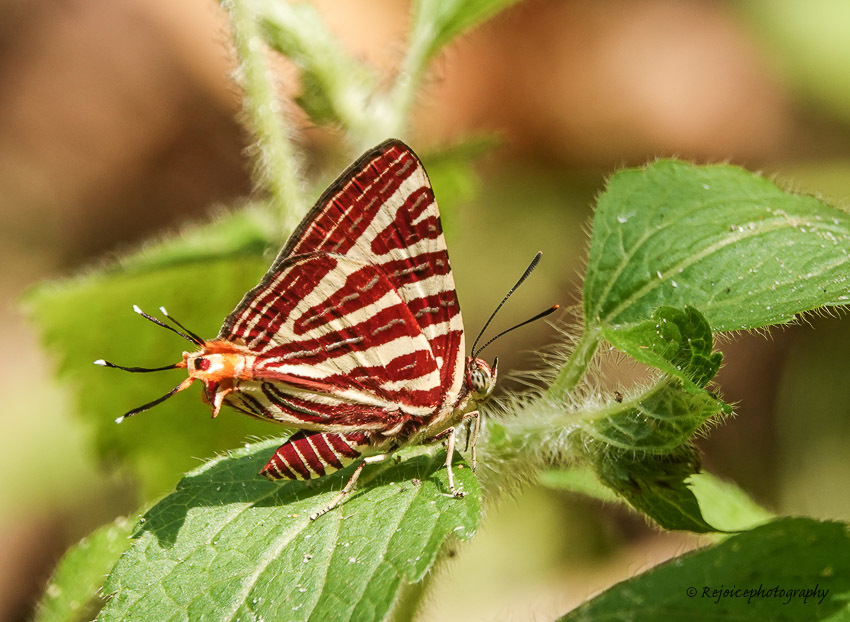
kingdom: Animalia
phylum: Arthropoda
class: Insecta
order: Lepidoptera
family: Lycaenidae
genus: Cigaritis
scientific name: Cigaritis lohita
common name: Long-banded silverline
